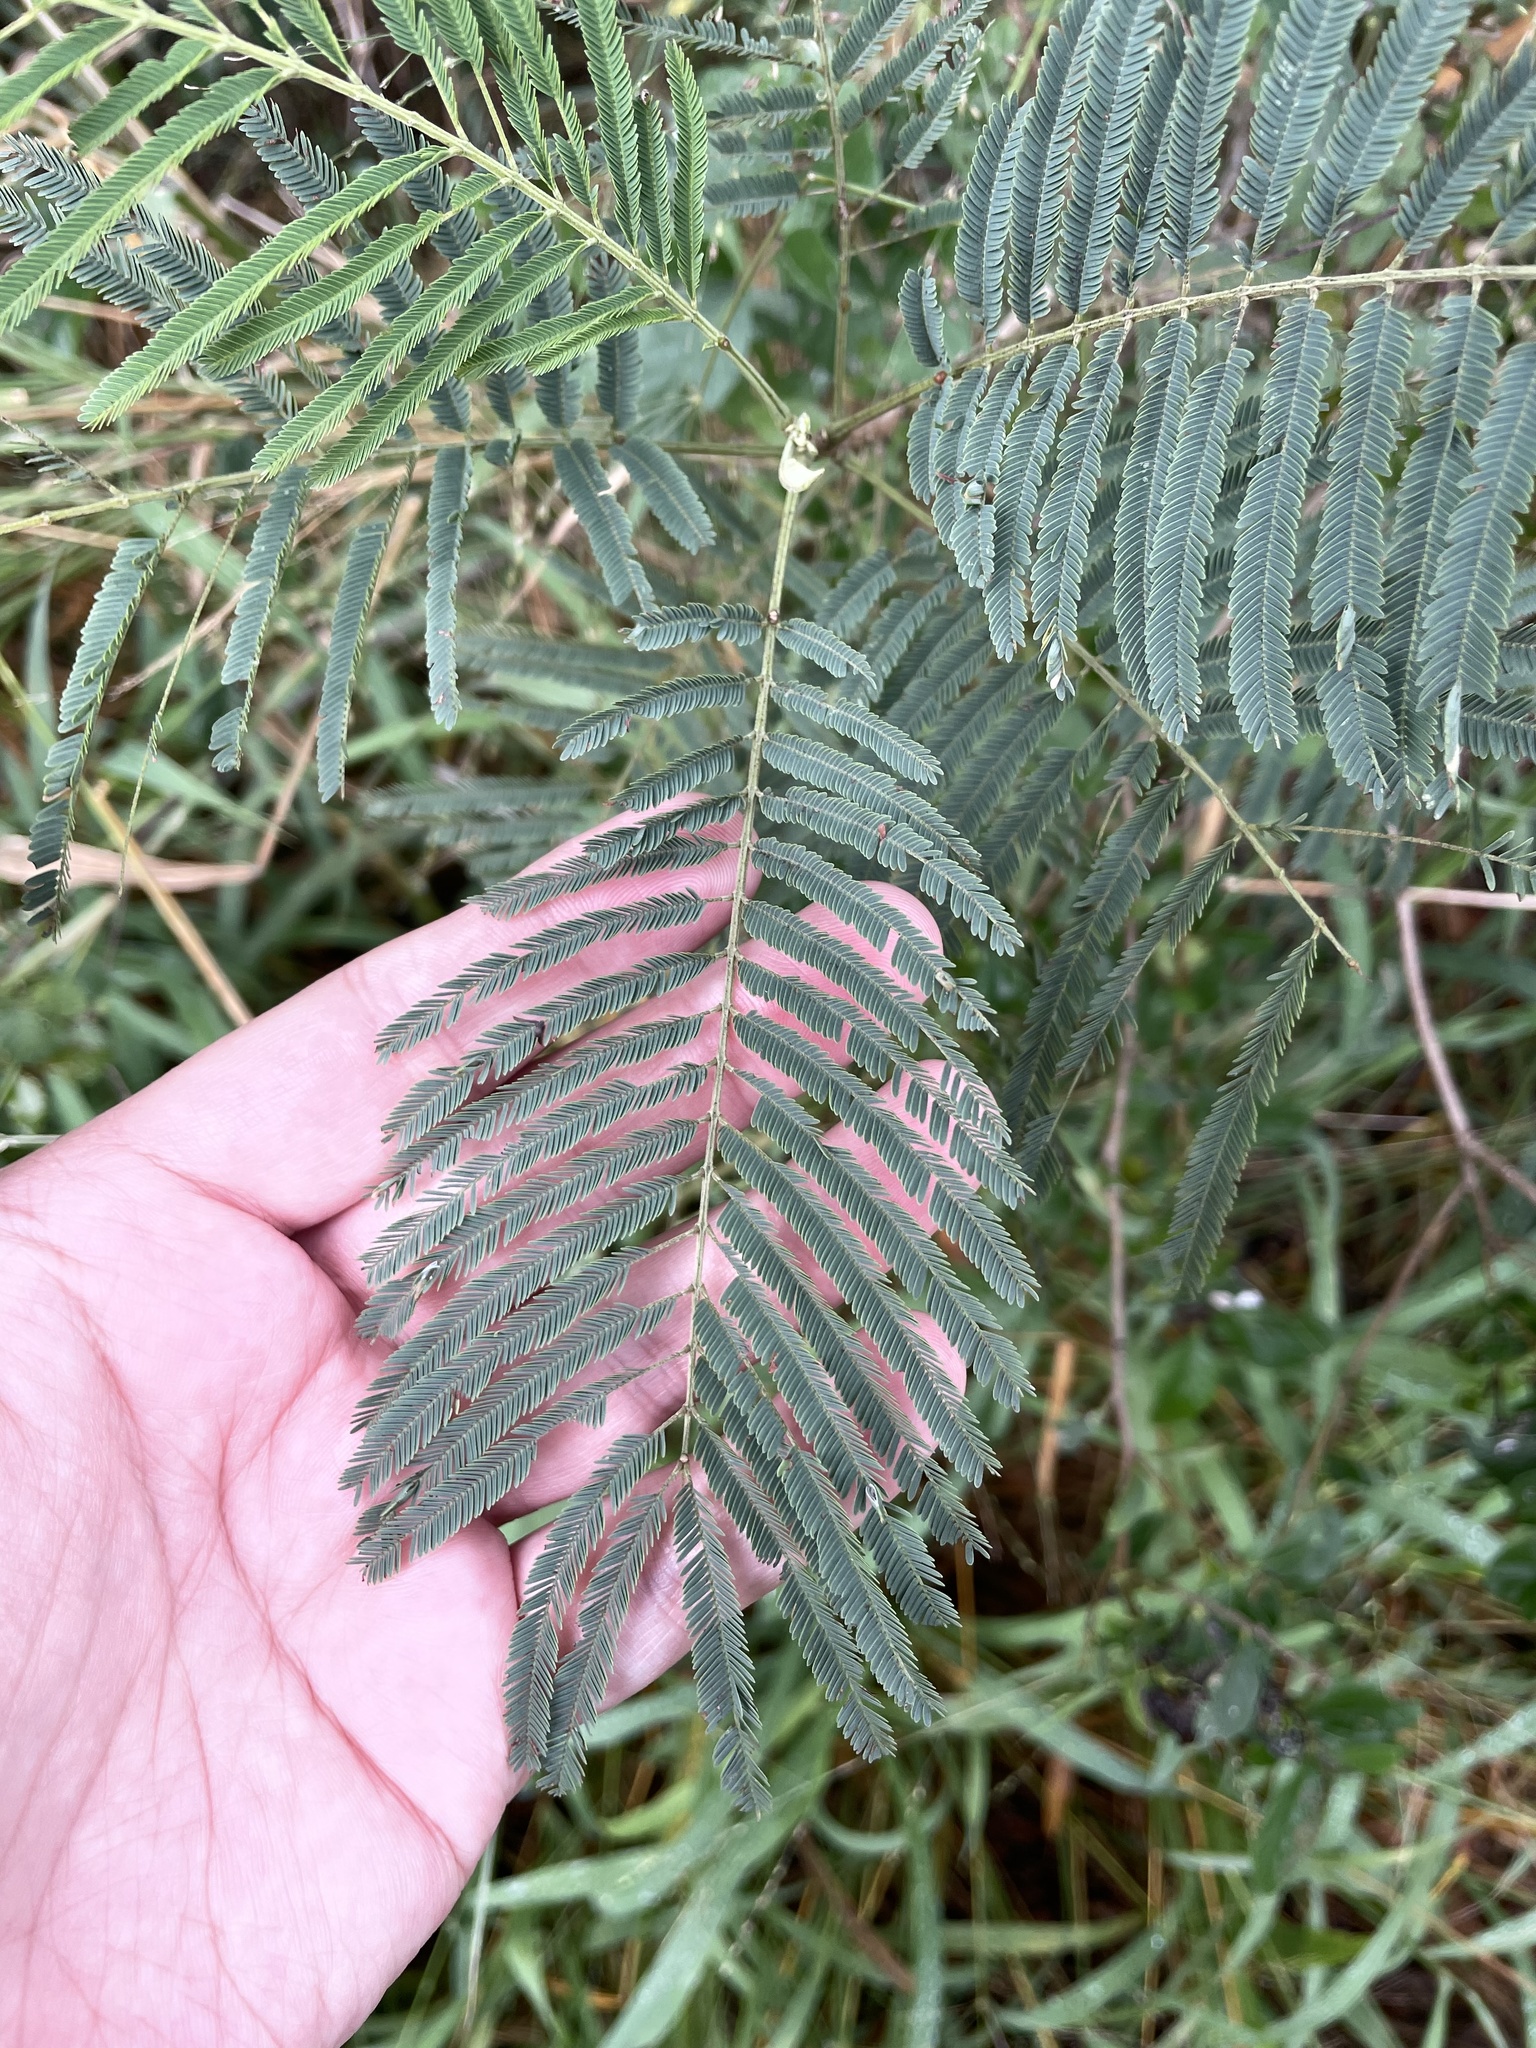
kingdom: Plantae
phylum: Tracheophyta
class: Magnoliopsida
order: Fabales
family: Fabaceae
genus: Leucaena
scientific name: Leucaena pulverulenta
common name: Great leadtree
